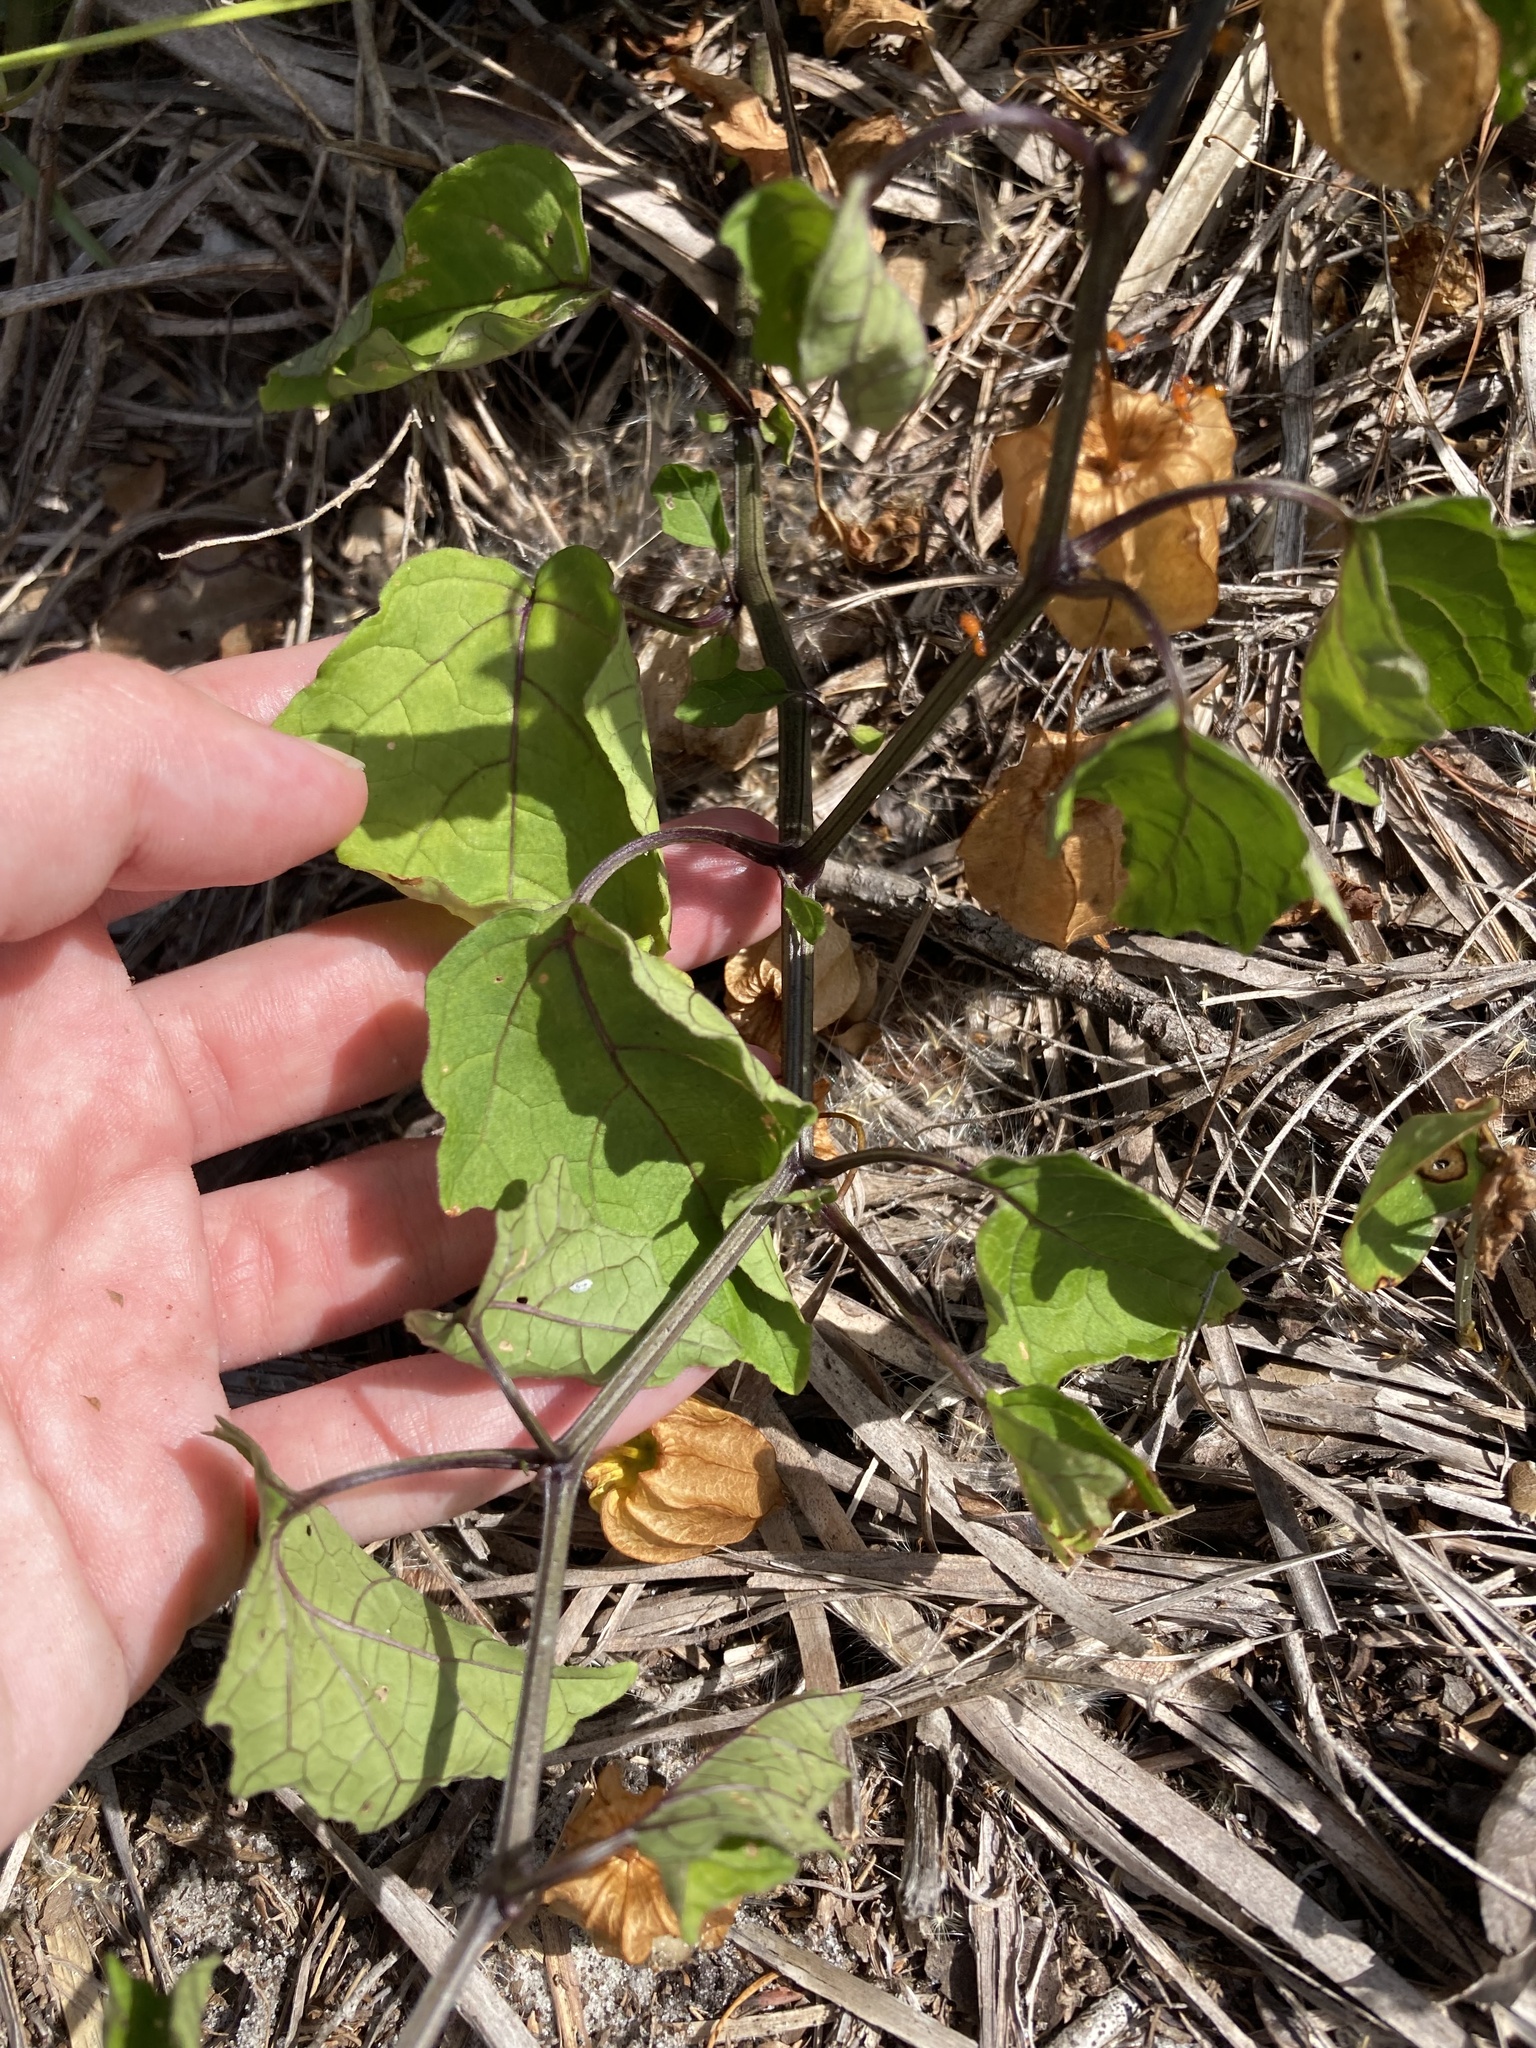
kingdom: Plantae
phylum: Tracheophyta
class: Magnoliopsida
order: Solanales
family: Solanaceae
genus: Physalis
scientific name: Physalis arenicola
